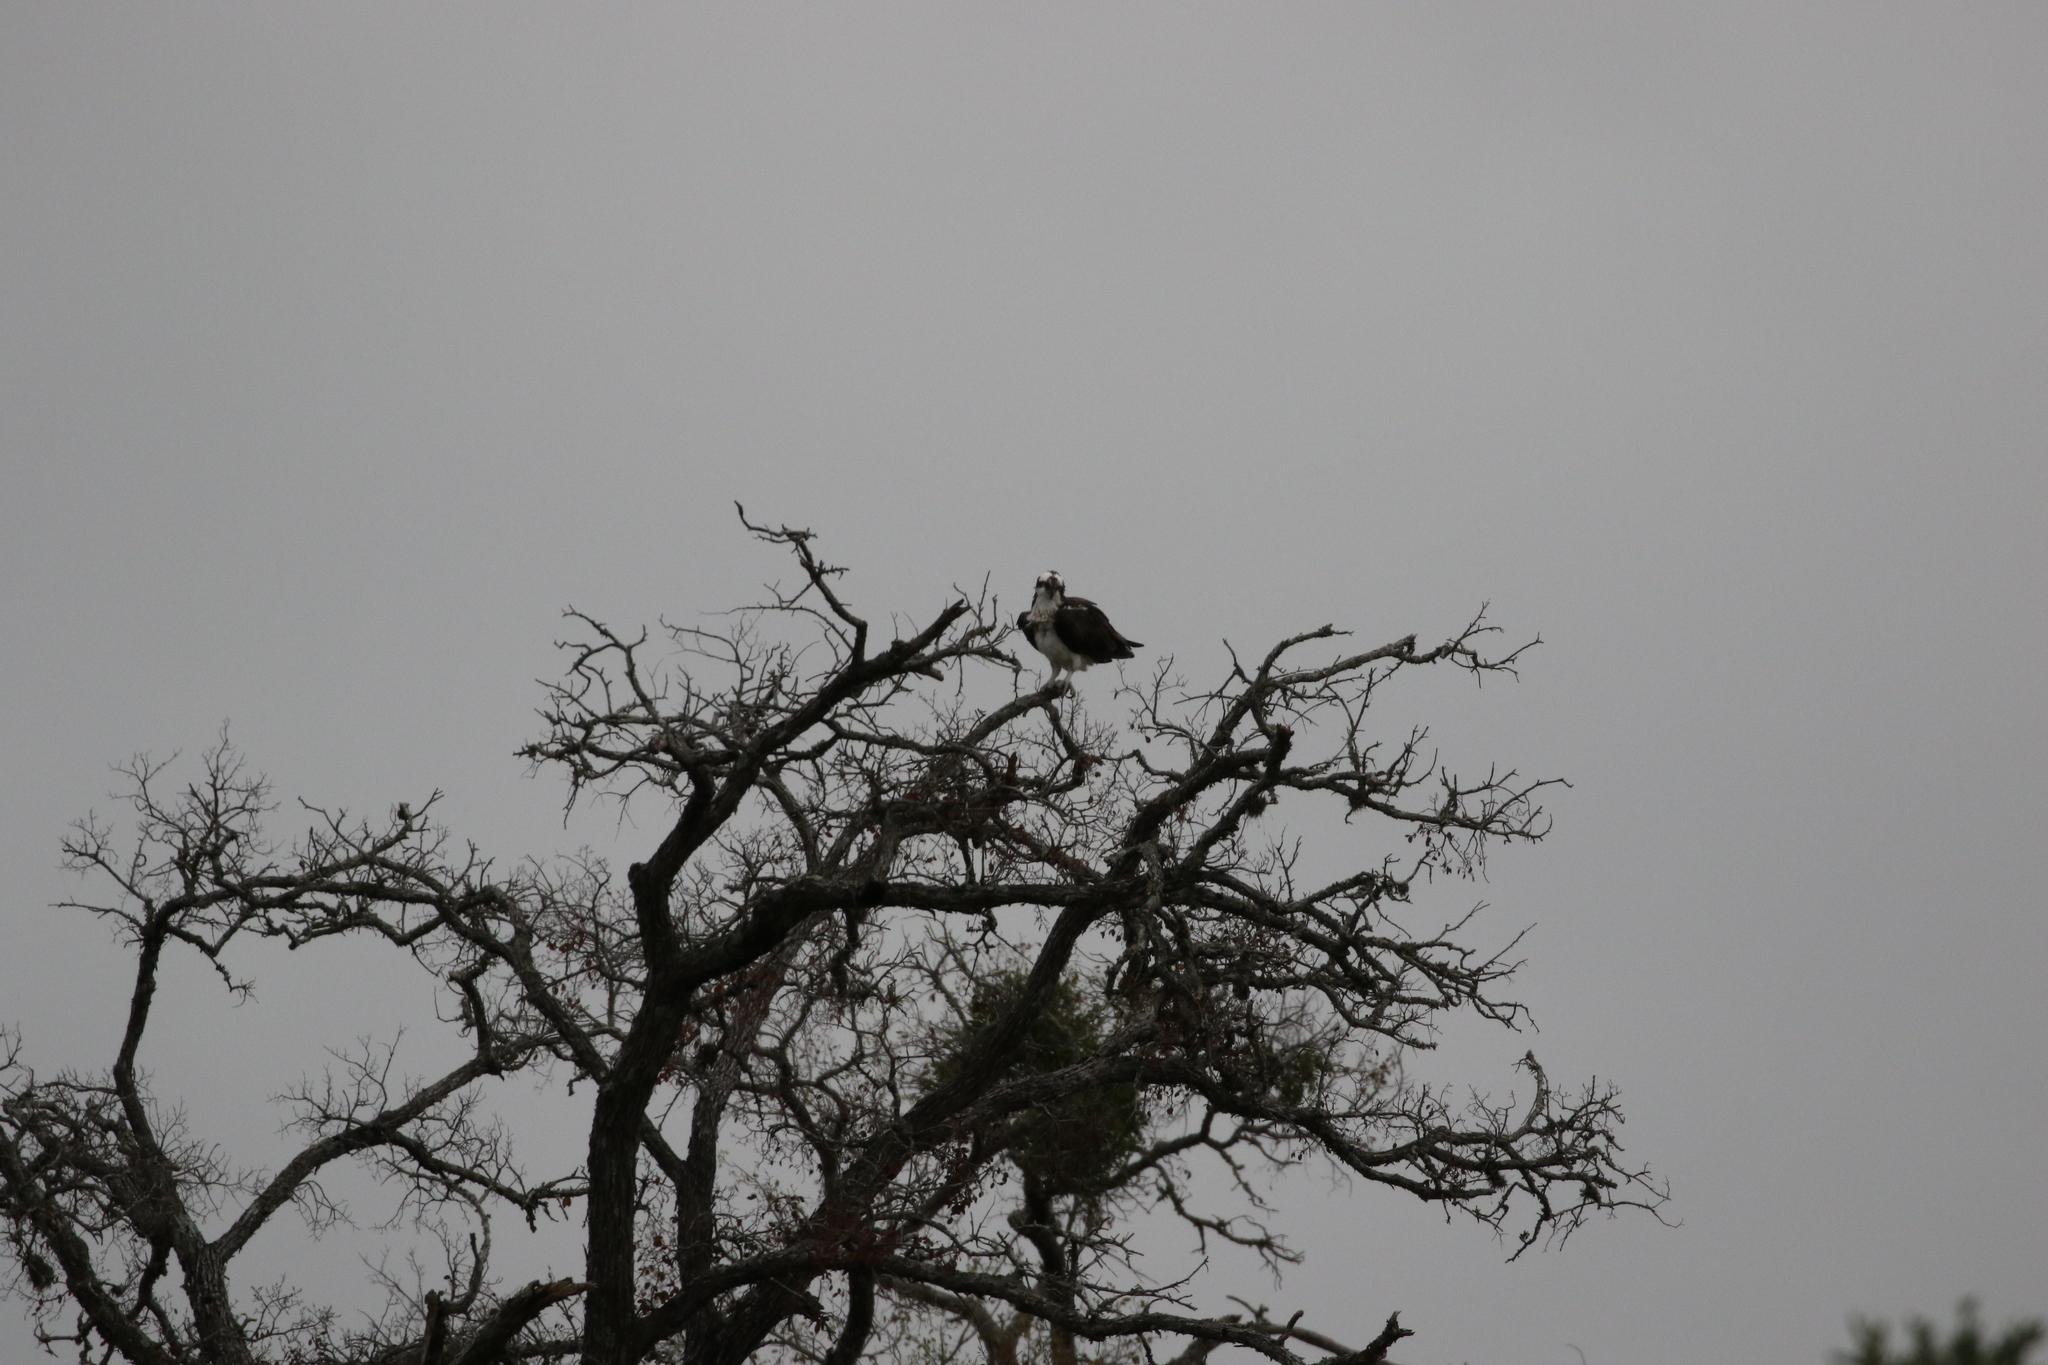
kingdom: Animalia
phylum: Chordata
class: Aves
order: Accipitriformes
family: Pandionidae
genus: Pandion
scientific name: Pandion haliaetus
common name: Osprey
